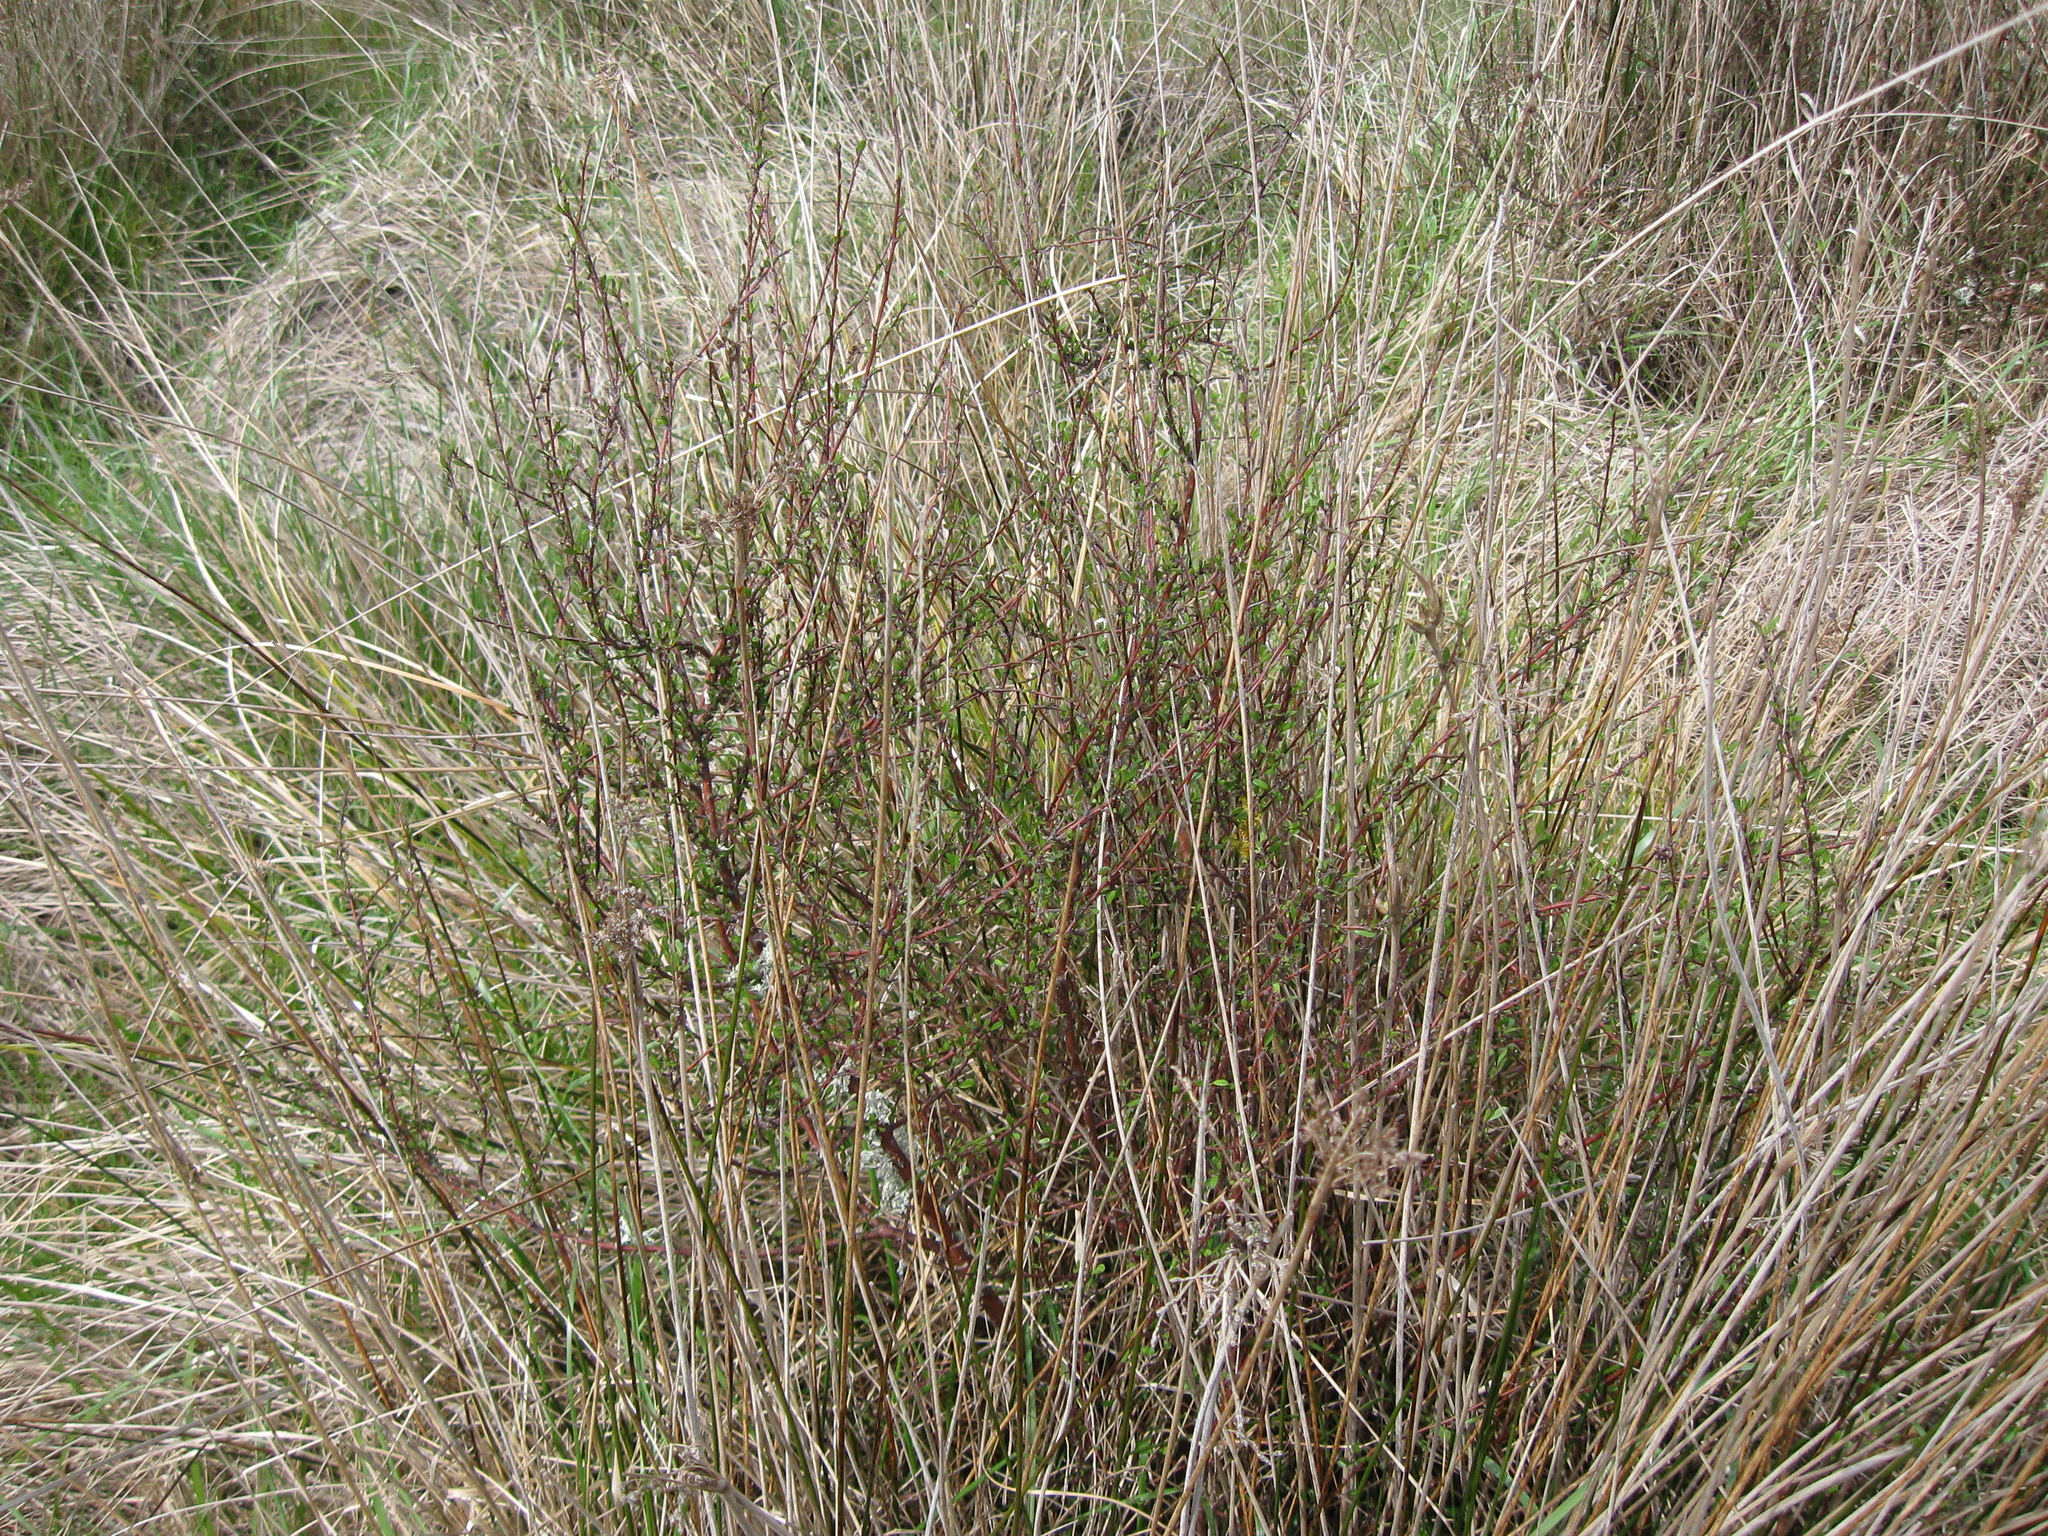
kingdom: Plantae
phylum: Tracheophyta
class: Magnoliopsida
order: Malvales
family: Malvaceae
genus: Plagianthus
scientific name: Plagianthus divaricatus
